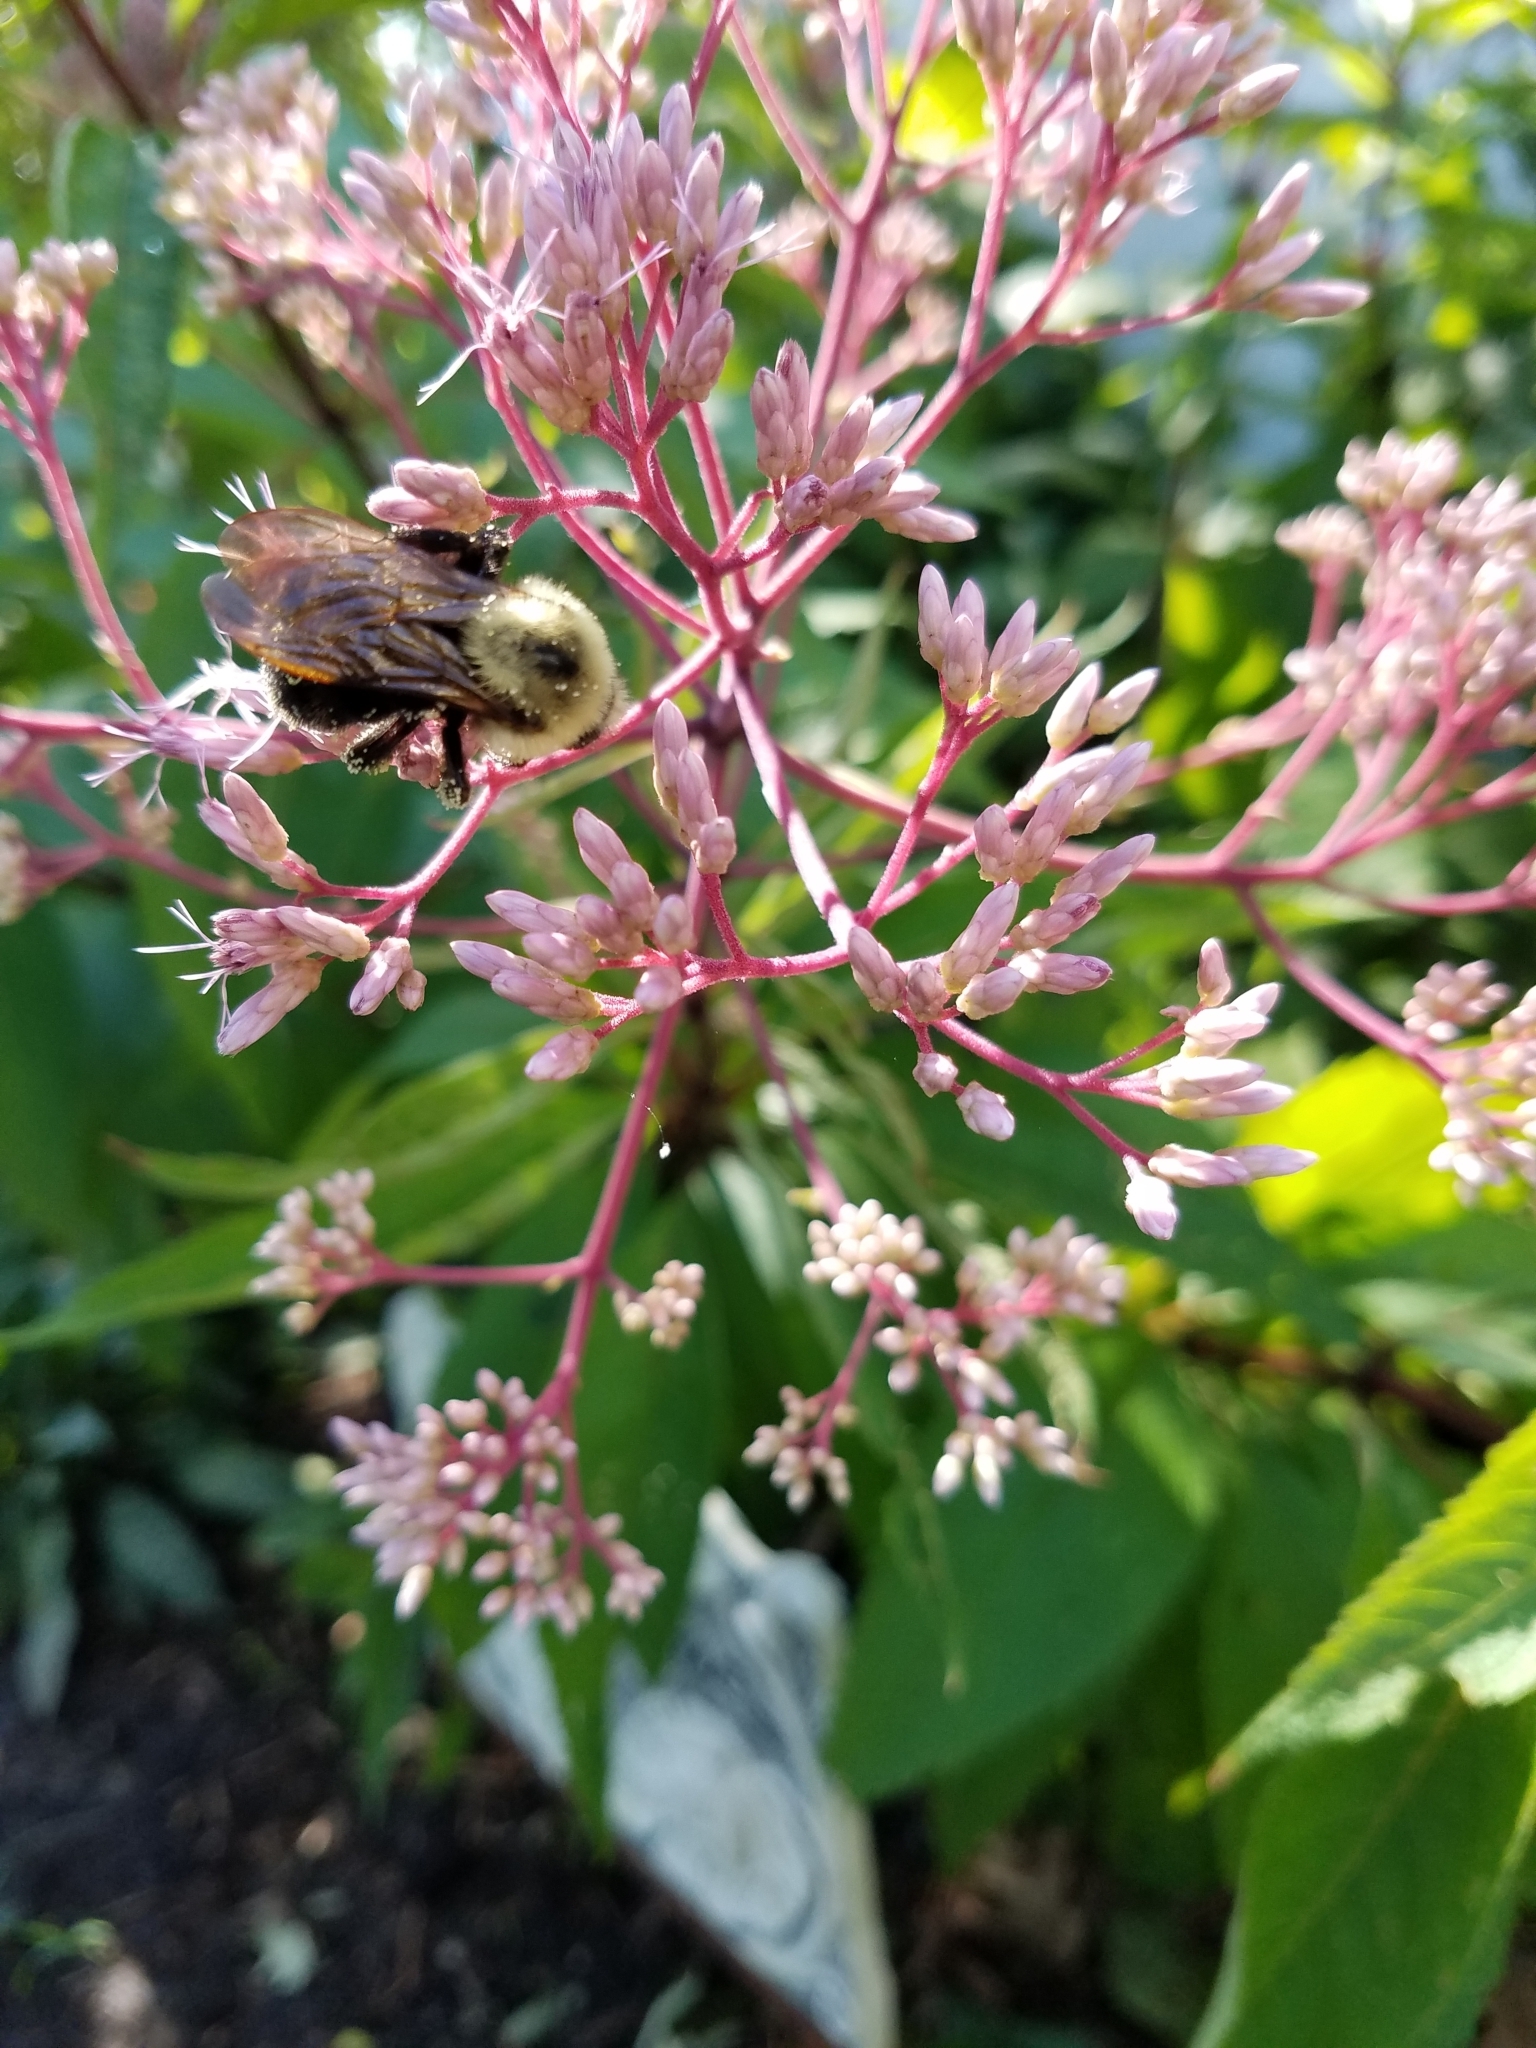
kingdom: Animalia
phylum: Arthropoda
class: Insecta
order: Hymenoptera
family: Apidae
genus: Bombus
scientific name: Bombus citrinus
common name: Lemon cuckoo bumble bee
